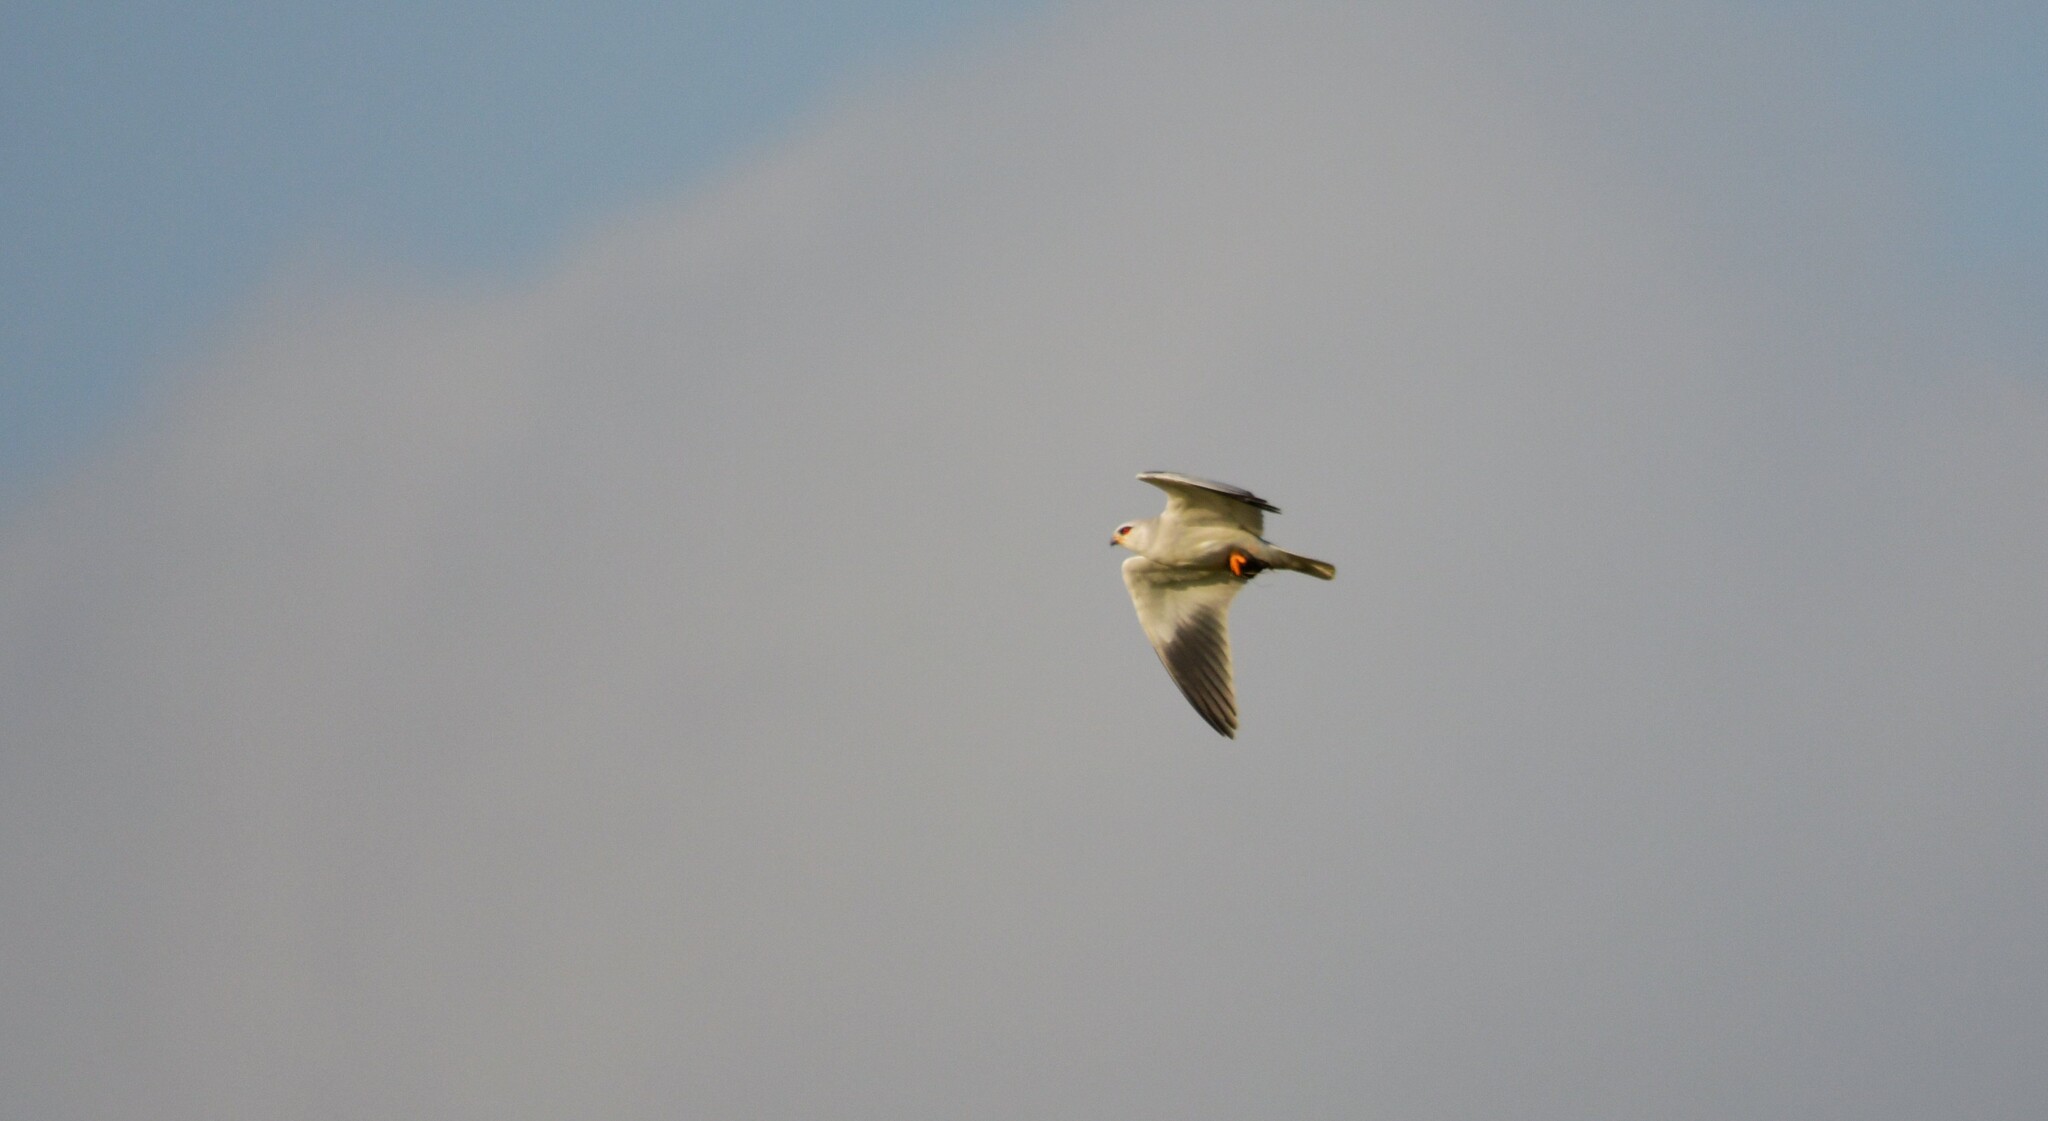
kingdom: Animalia
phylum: Chordata
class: Aves
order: Accipitriformes
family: Accipitridae
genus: Elanus
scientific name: Elanus caeruleus
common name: Black-winged kite
